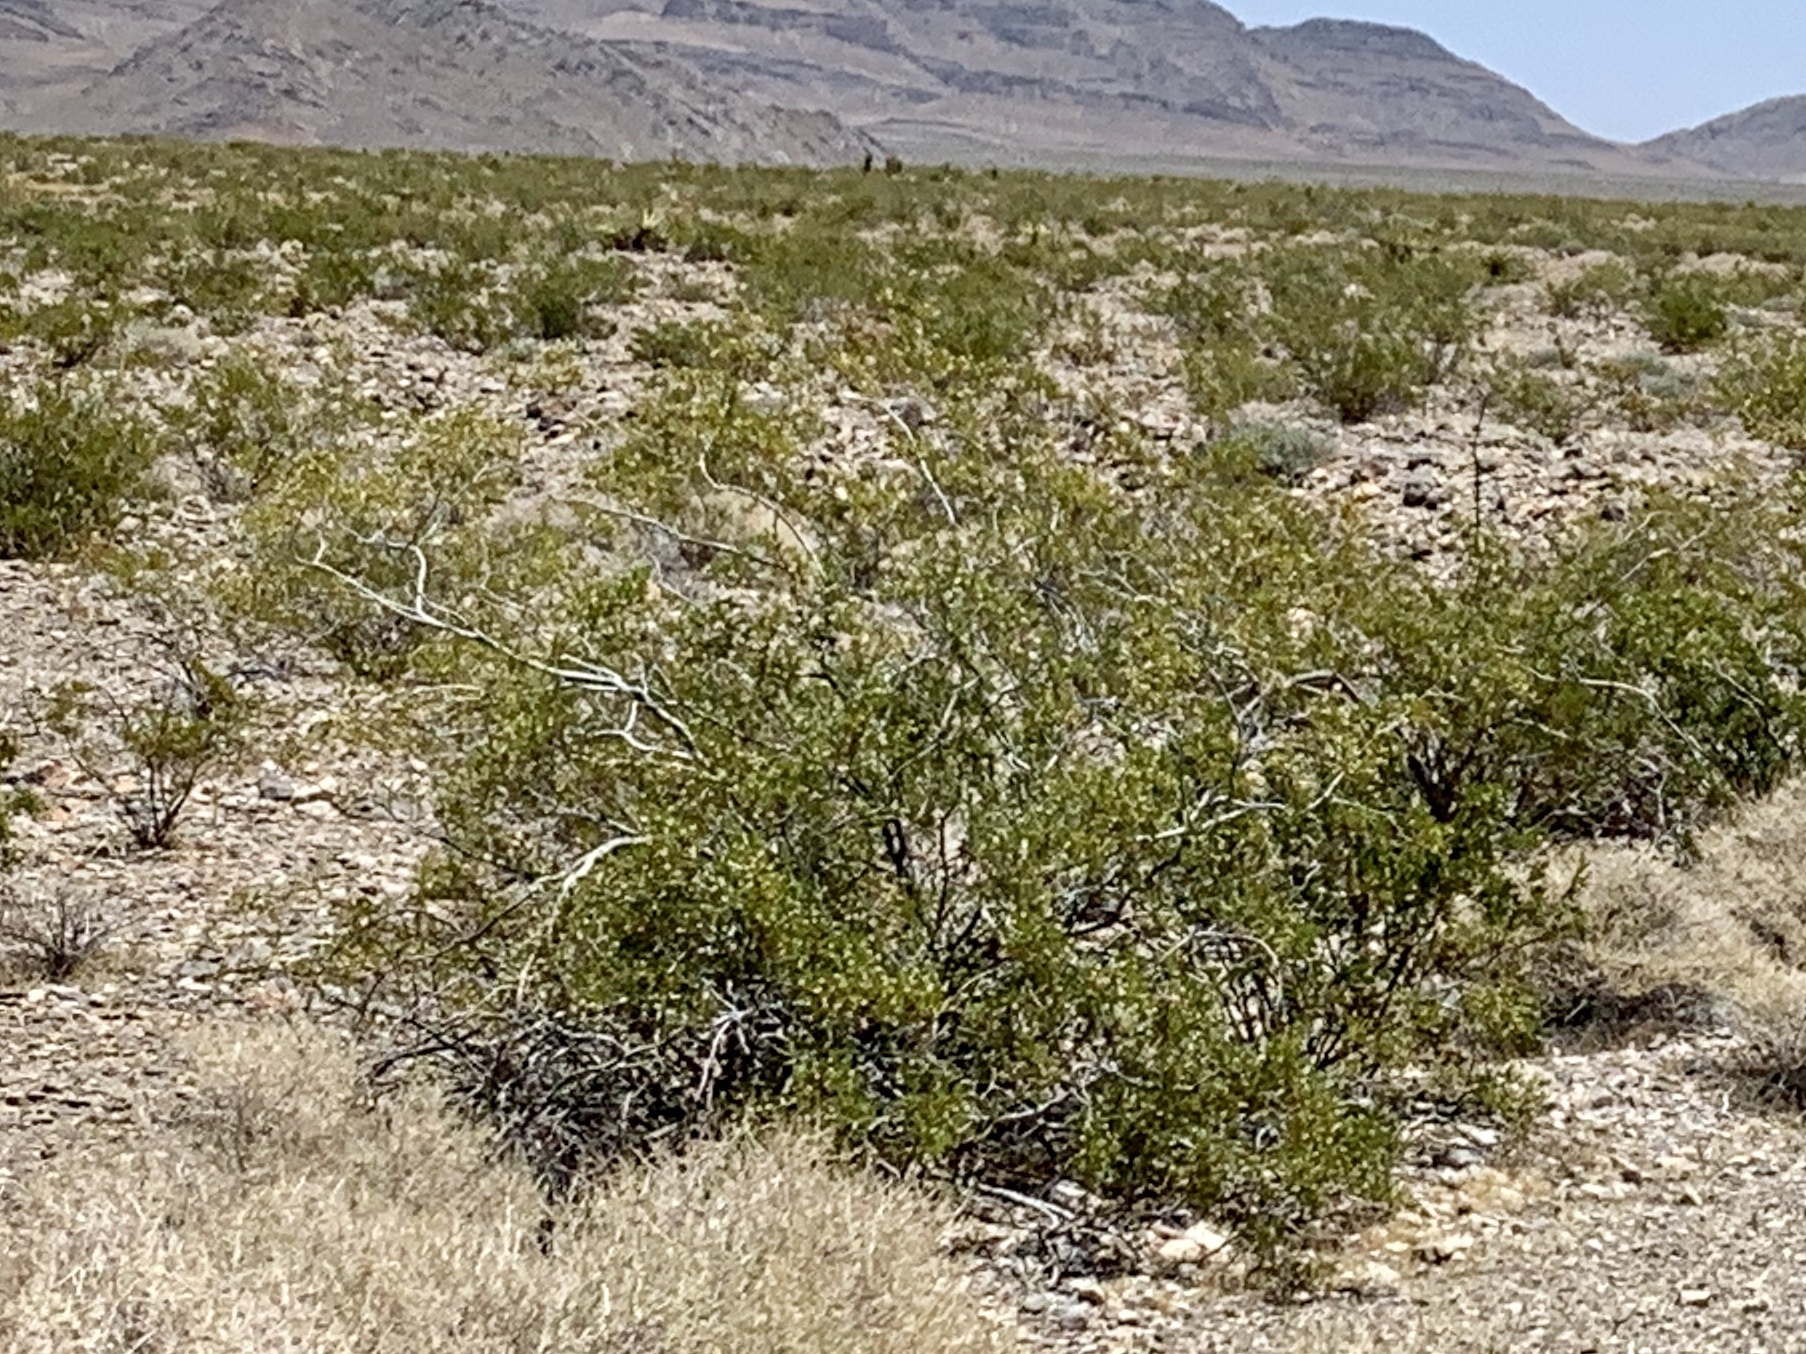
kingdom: Plantae
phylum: Tracheophyta
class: Magnoliopsida
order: Zygophyllales
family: Zygophyllaceae
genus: Larrea
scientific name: Larrea tridentata
